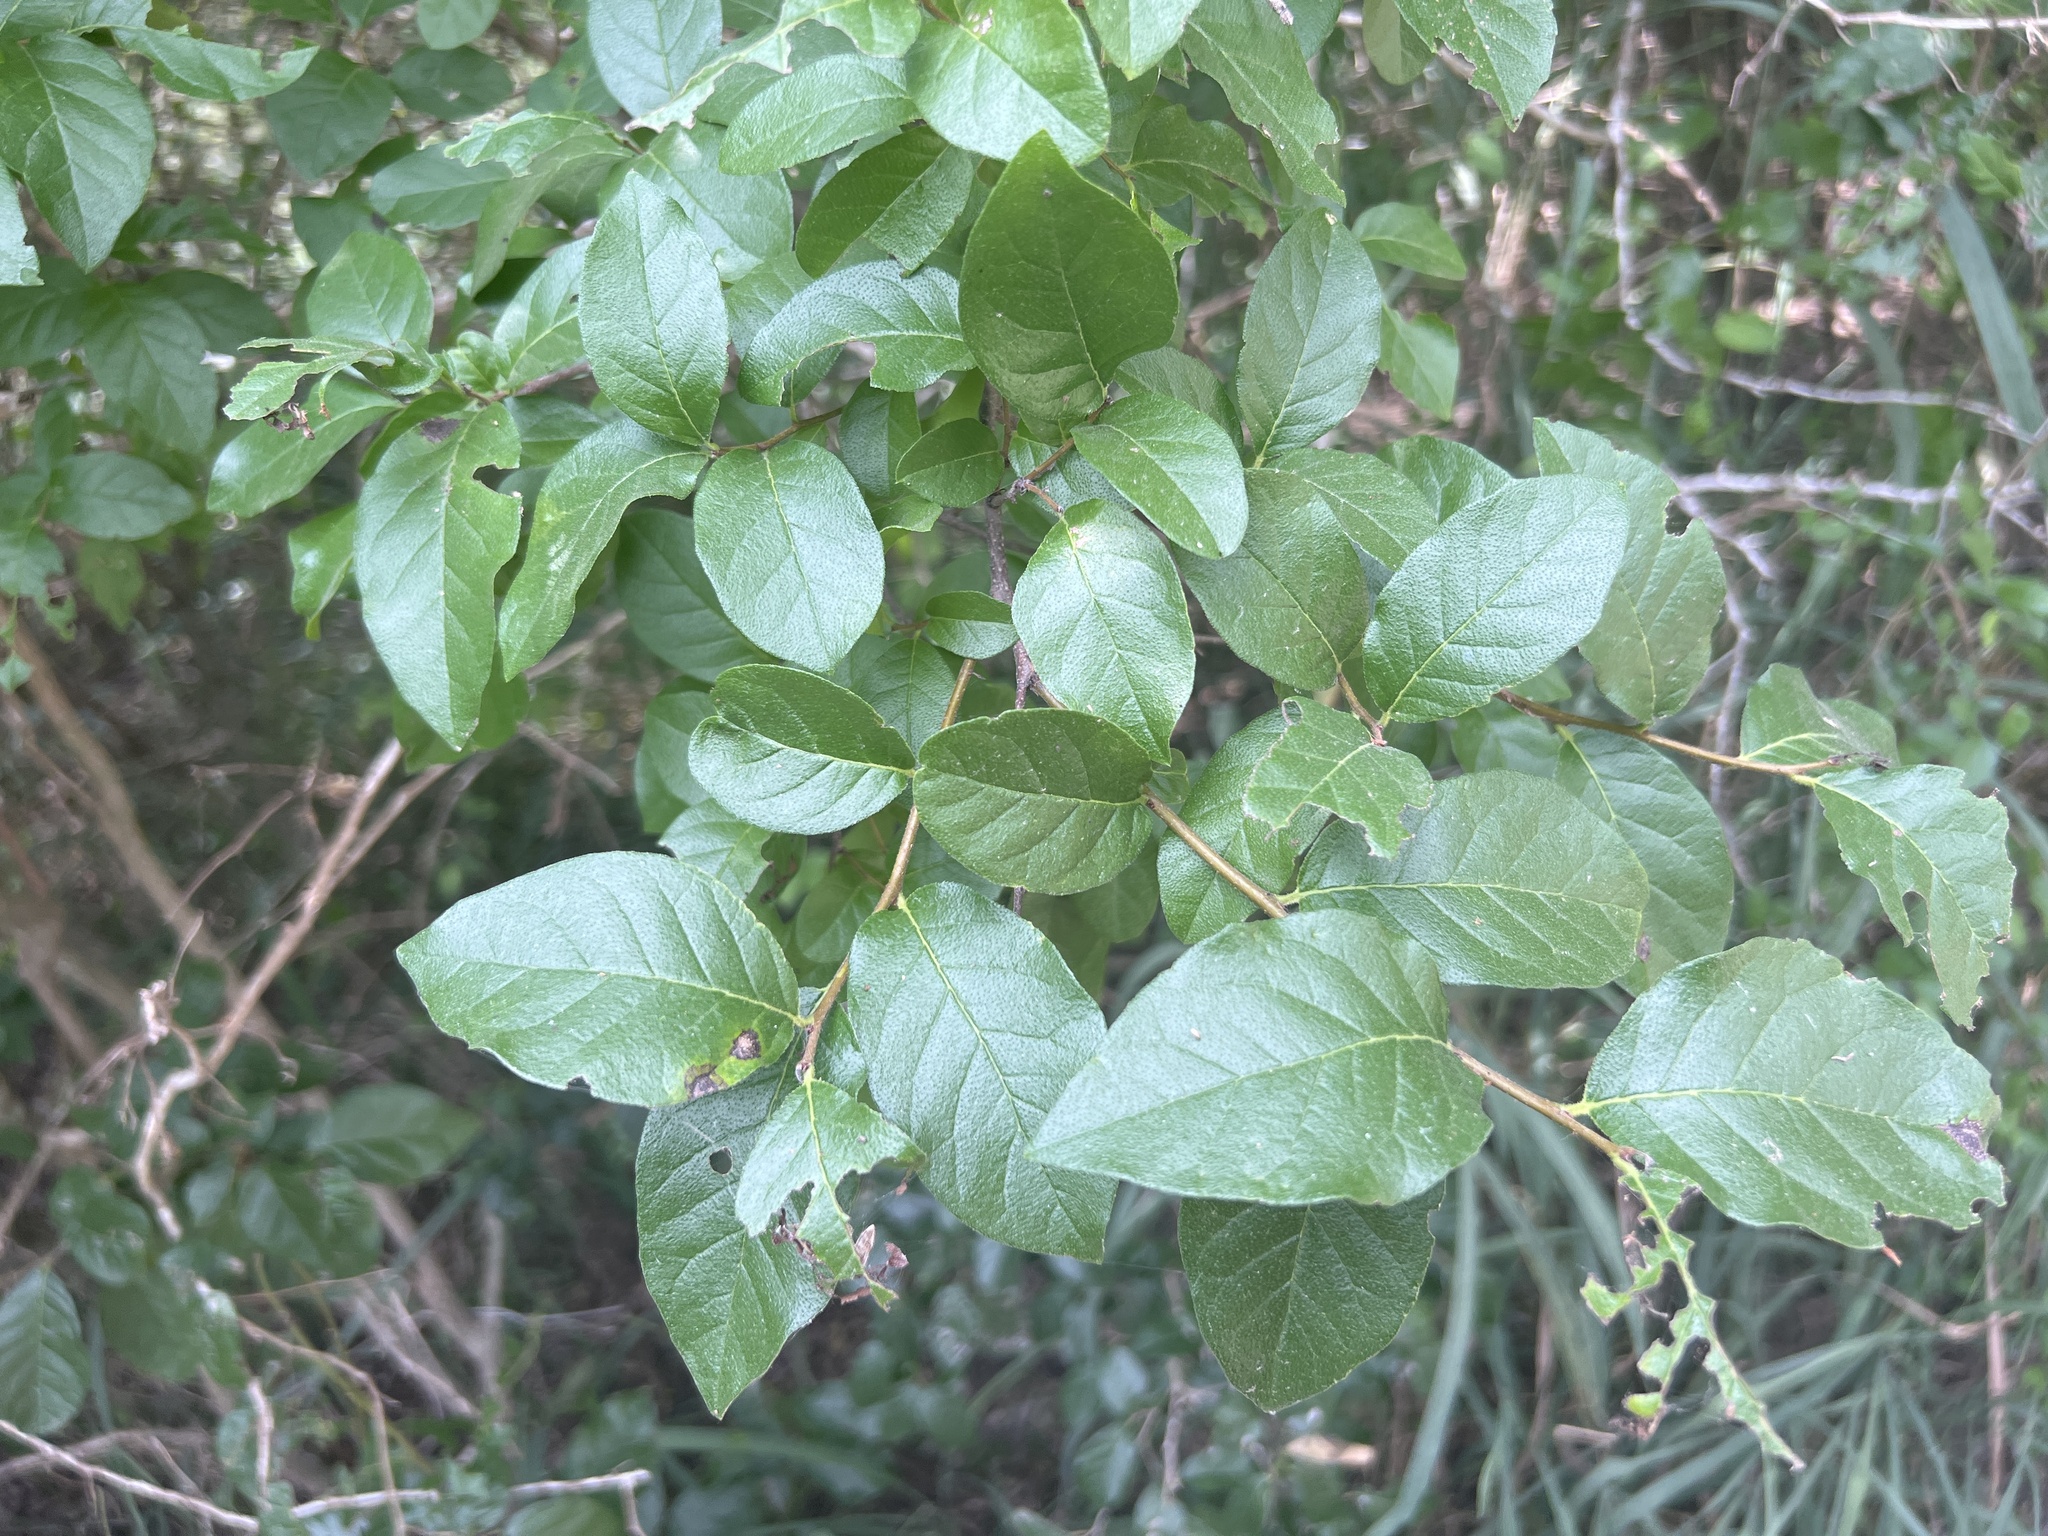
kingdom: Plantae
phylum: Tracheophyta
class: Magnoliopsida
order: Boraginales
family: Ehretiaceae
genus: Ehretia
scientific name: Ehretia anacua
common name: Sugarberry
